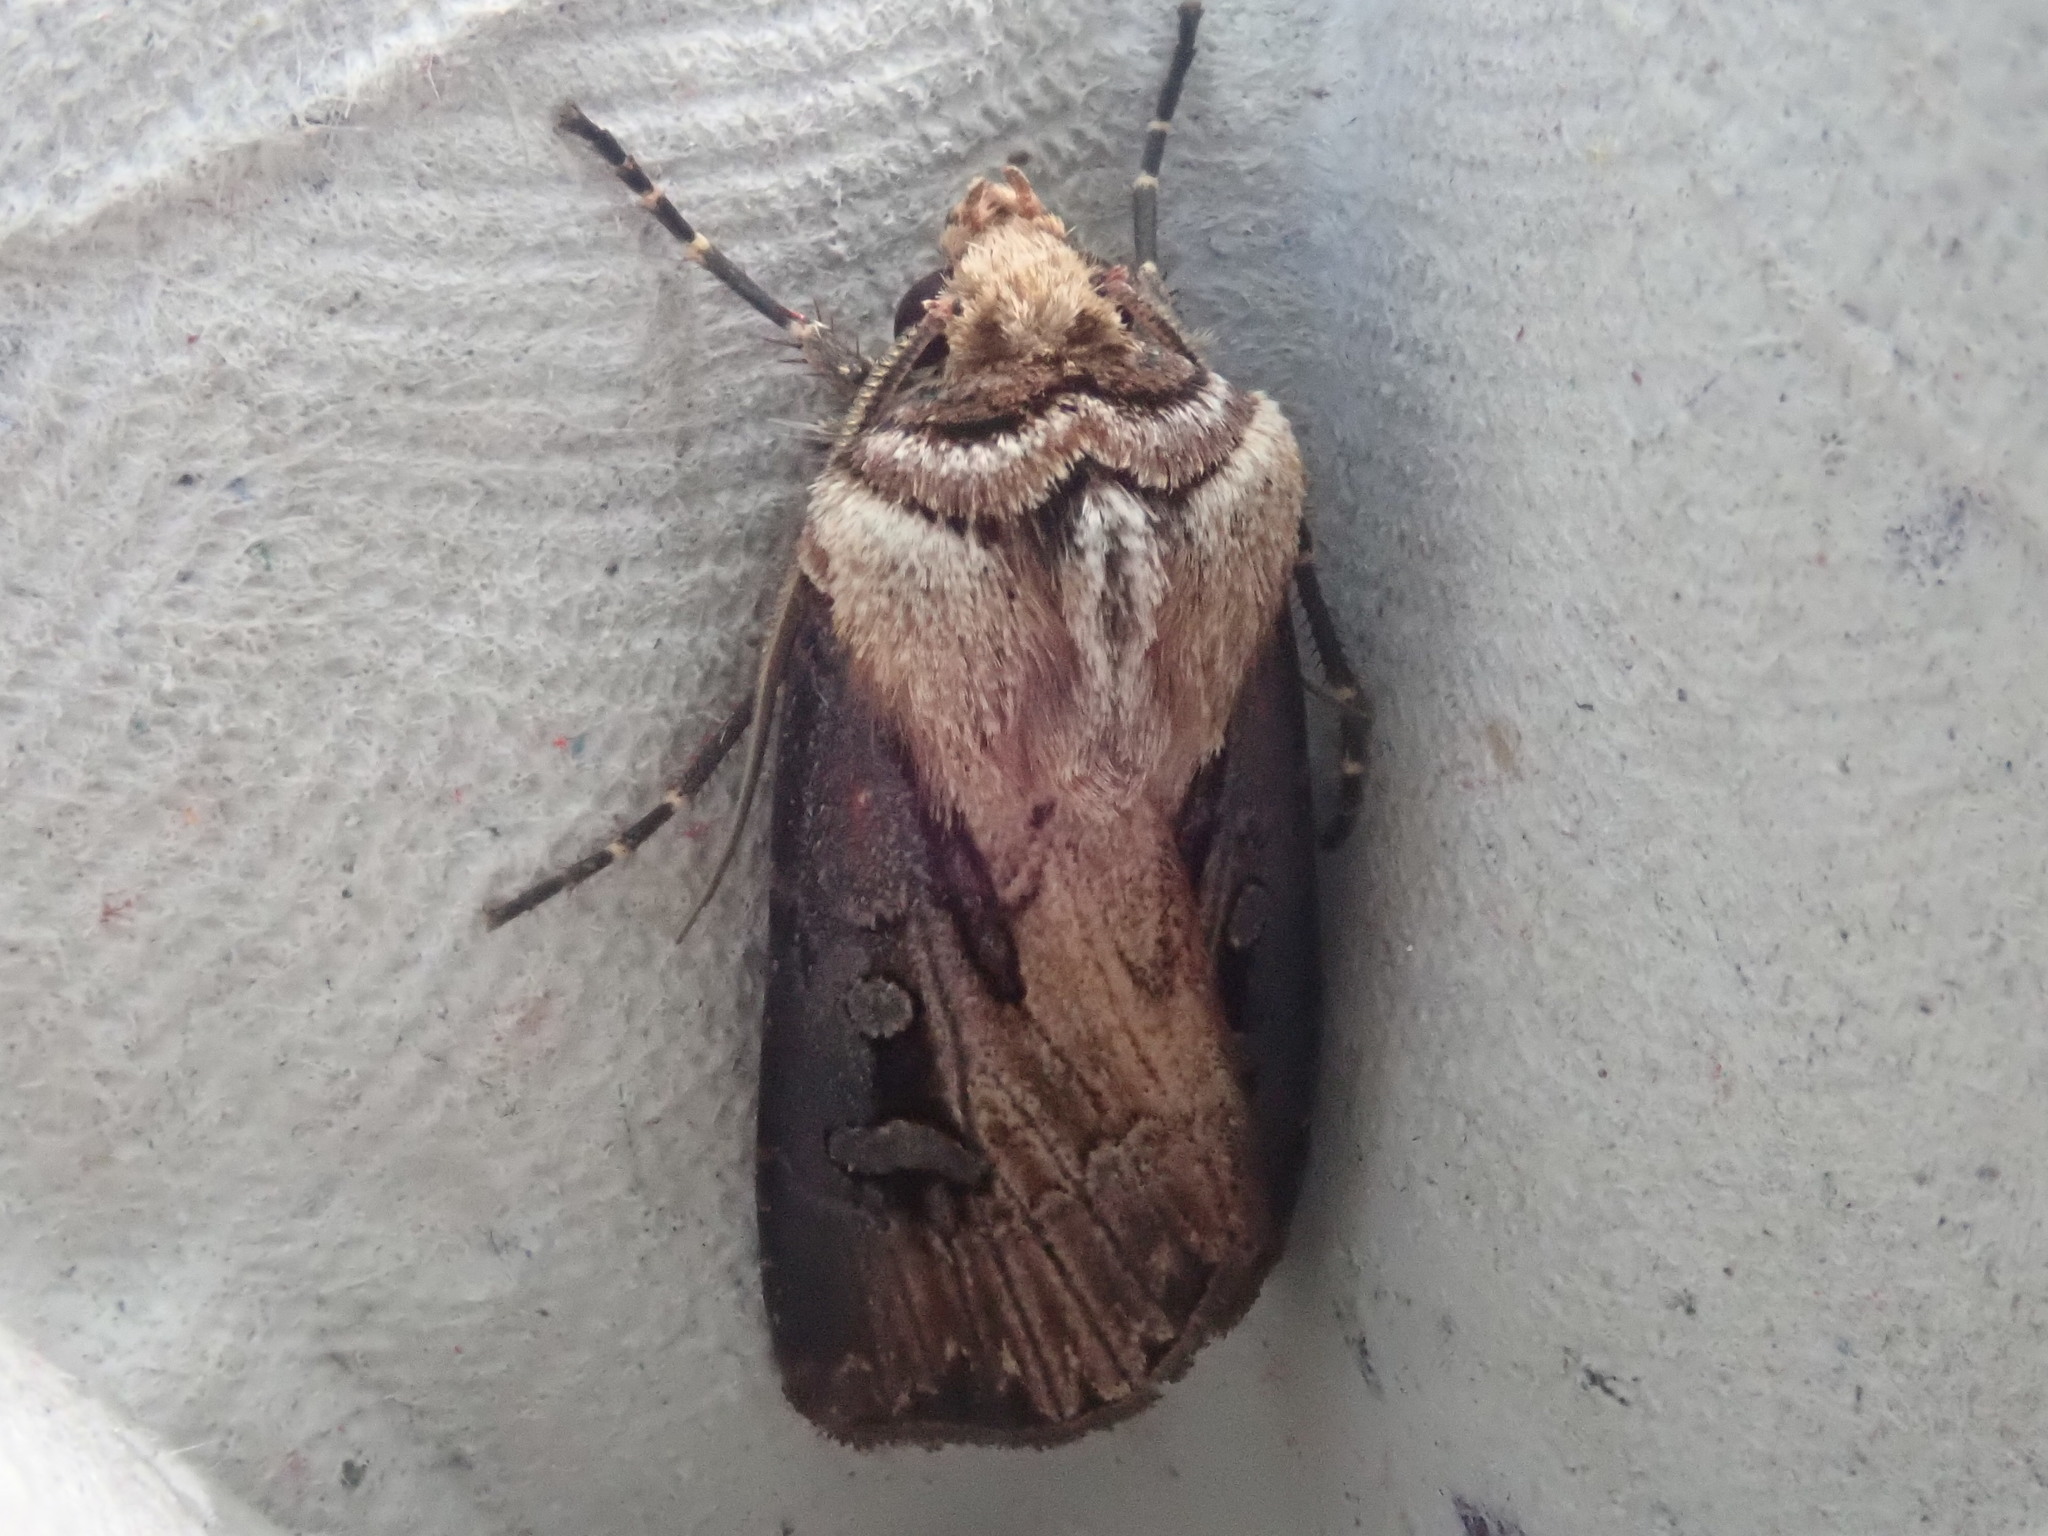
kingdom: Animalia
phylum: Arthropoda
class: Insecta
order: Lepidoptera
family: Noctuidae
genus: Agrotis
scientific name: Agrotis volubilis
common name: Voluble dart
